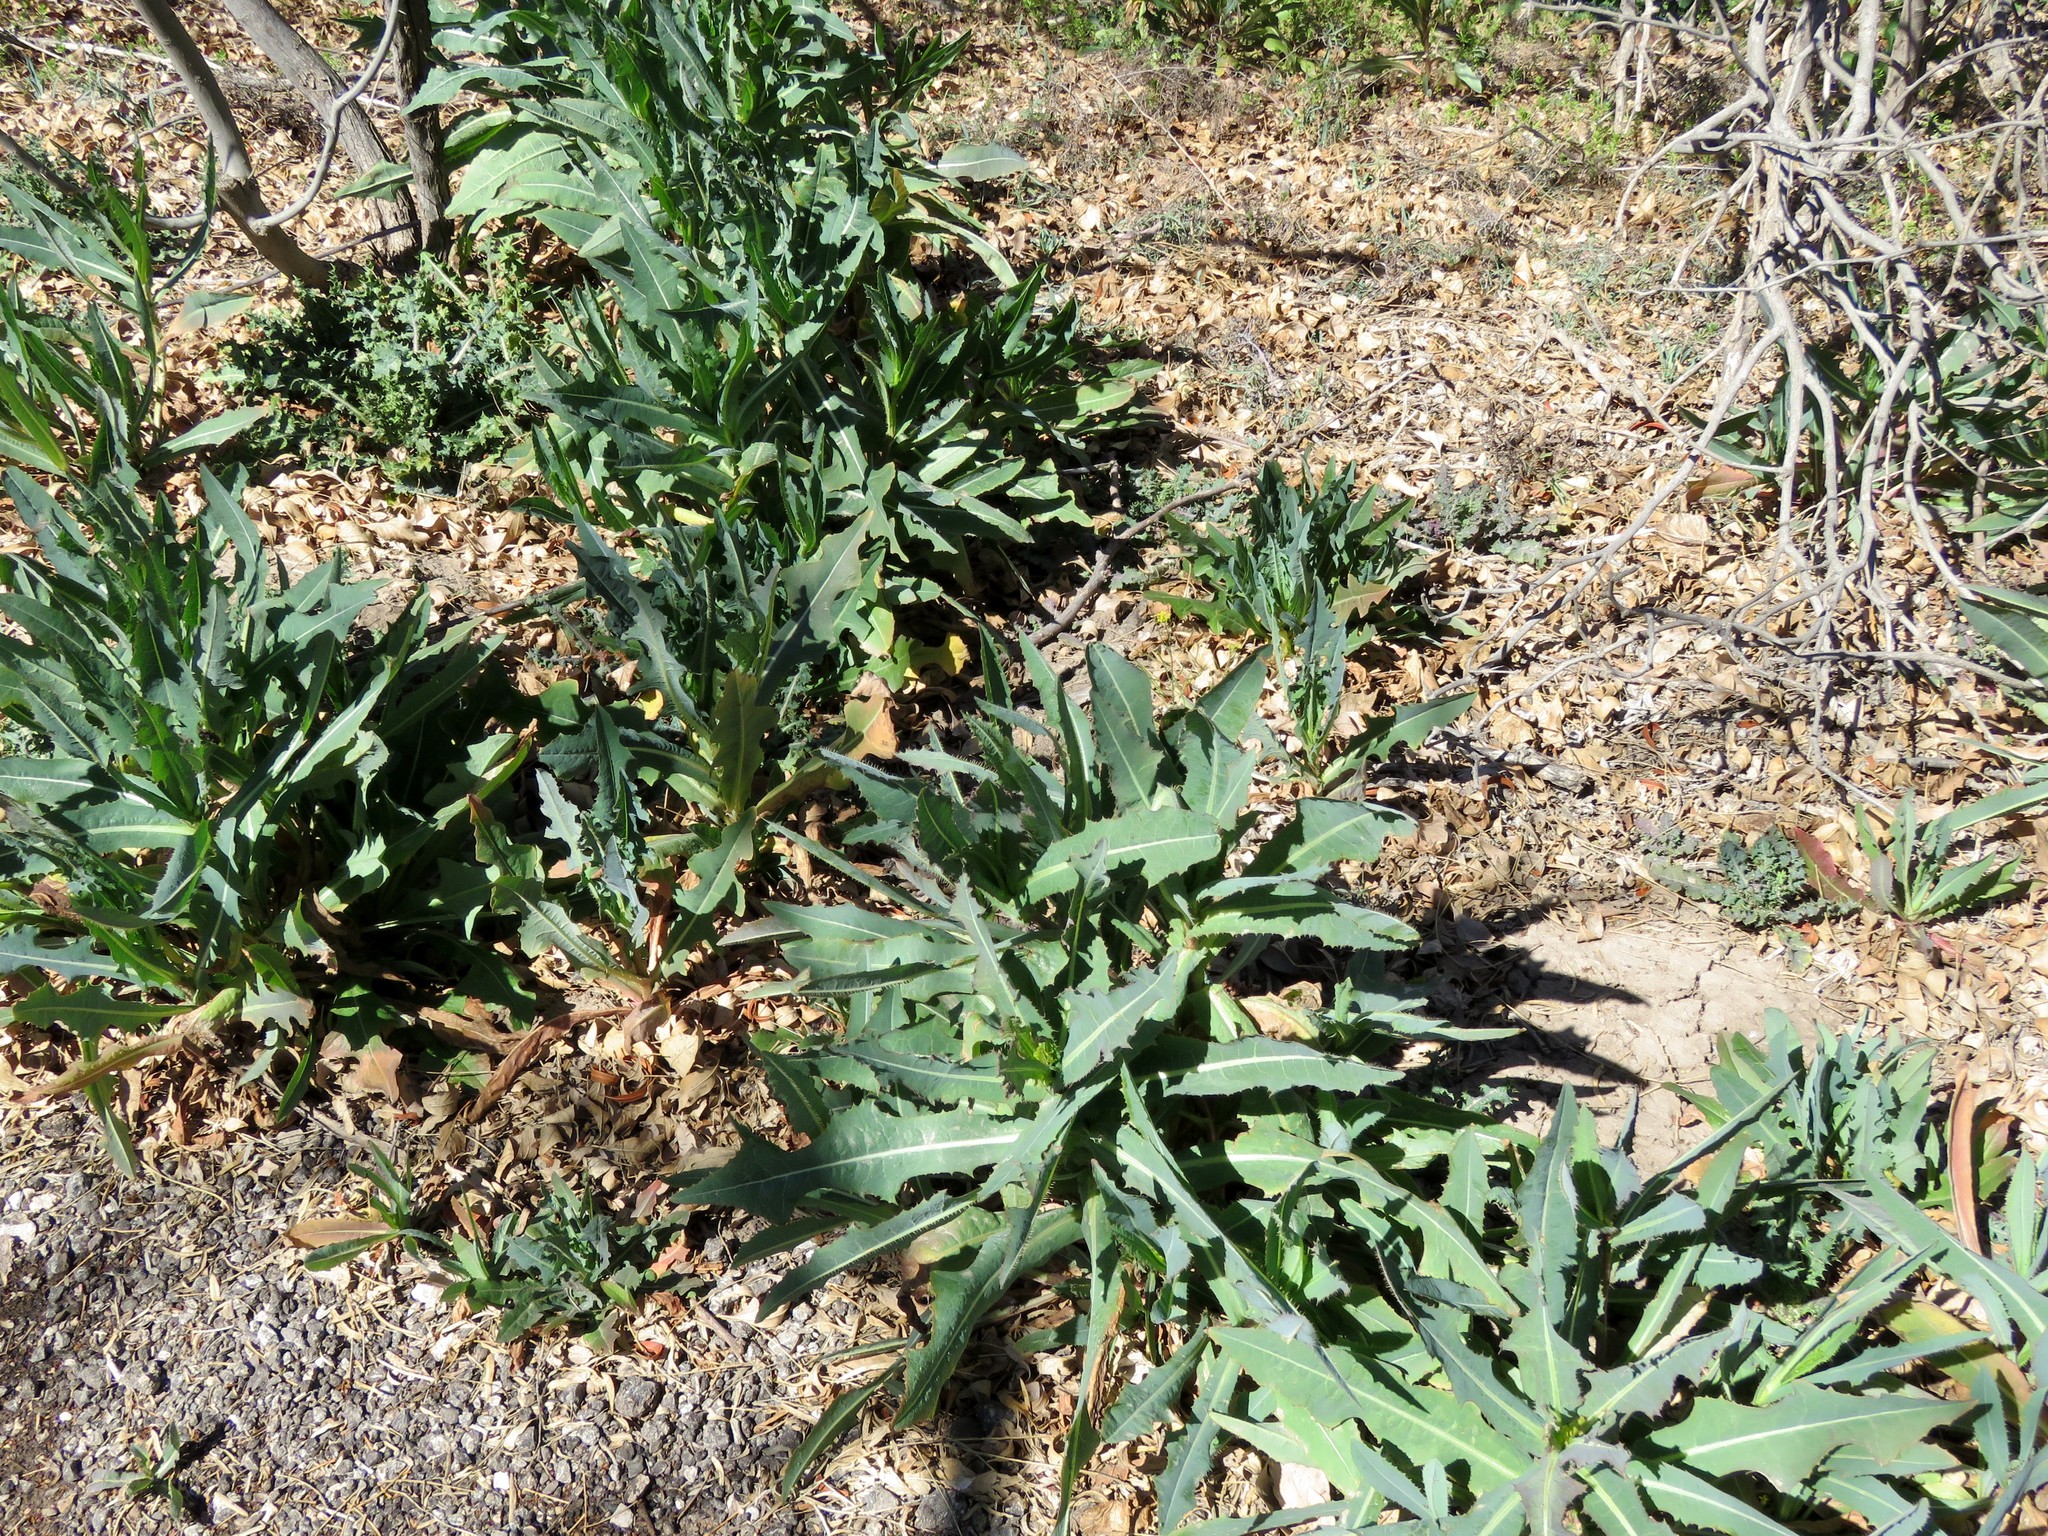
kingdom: Plantae
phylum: Tracheophyta
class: Magnoliopsida
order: Asterales
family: Asteraceae
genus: Lactuca
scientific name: Lactuca serriola
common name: Prickly lettuce
